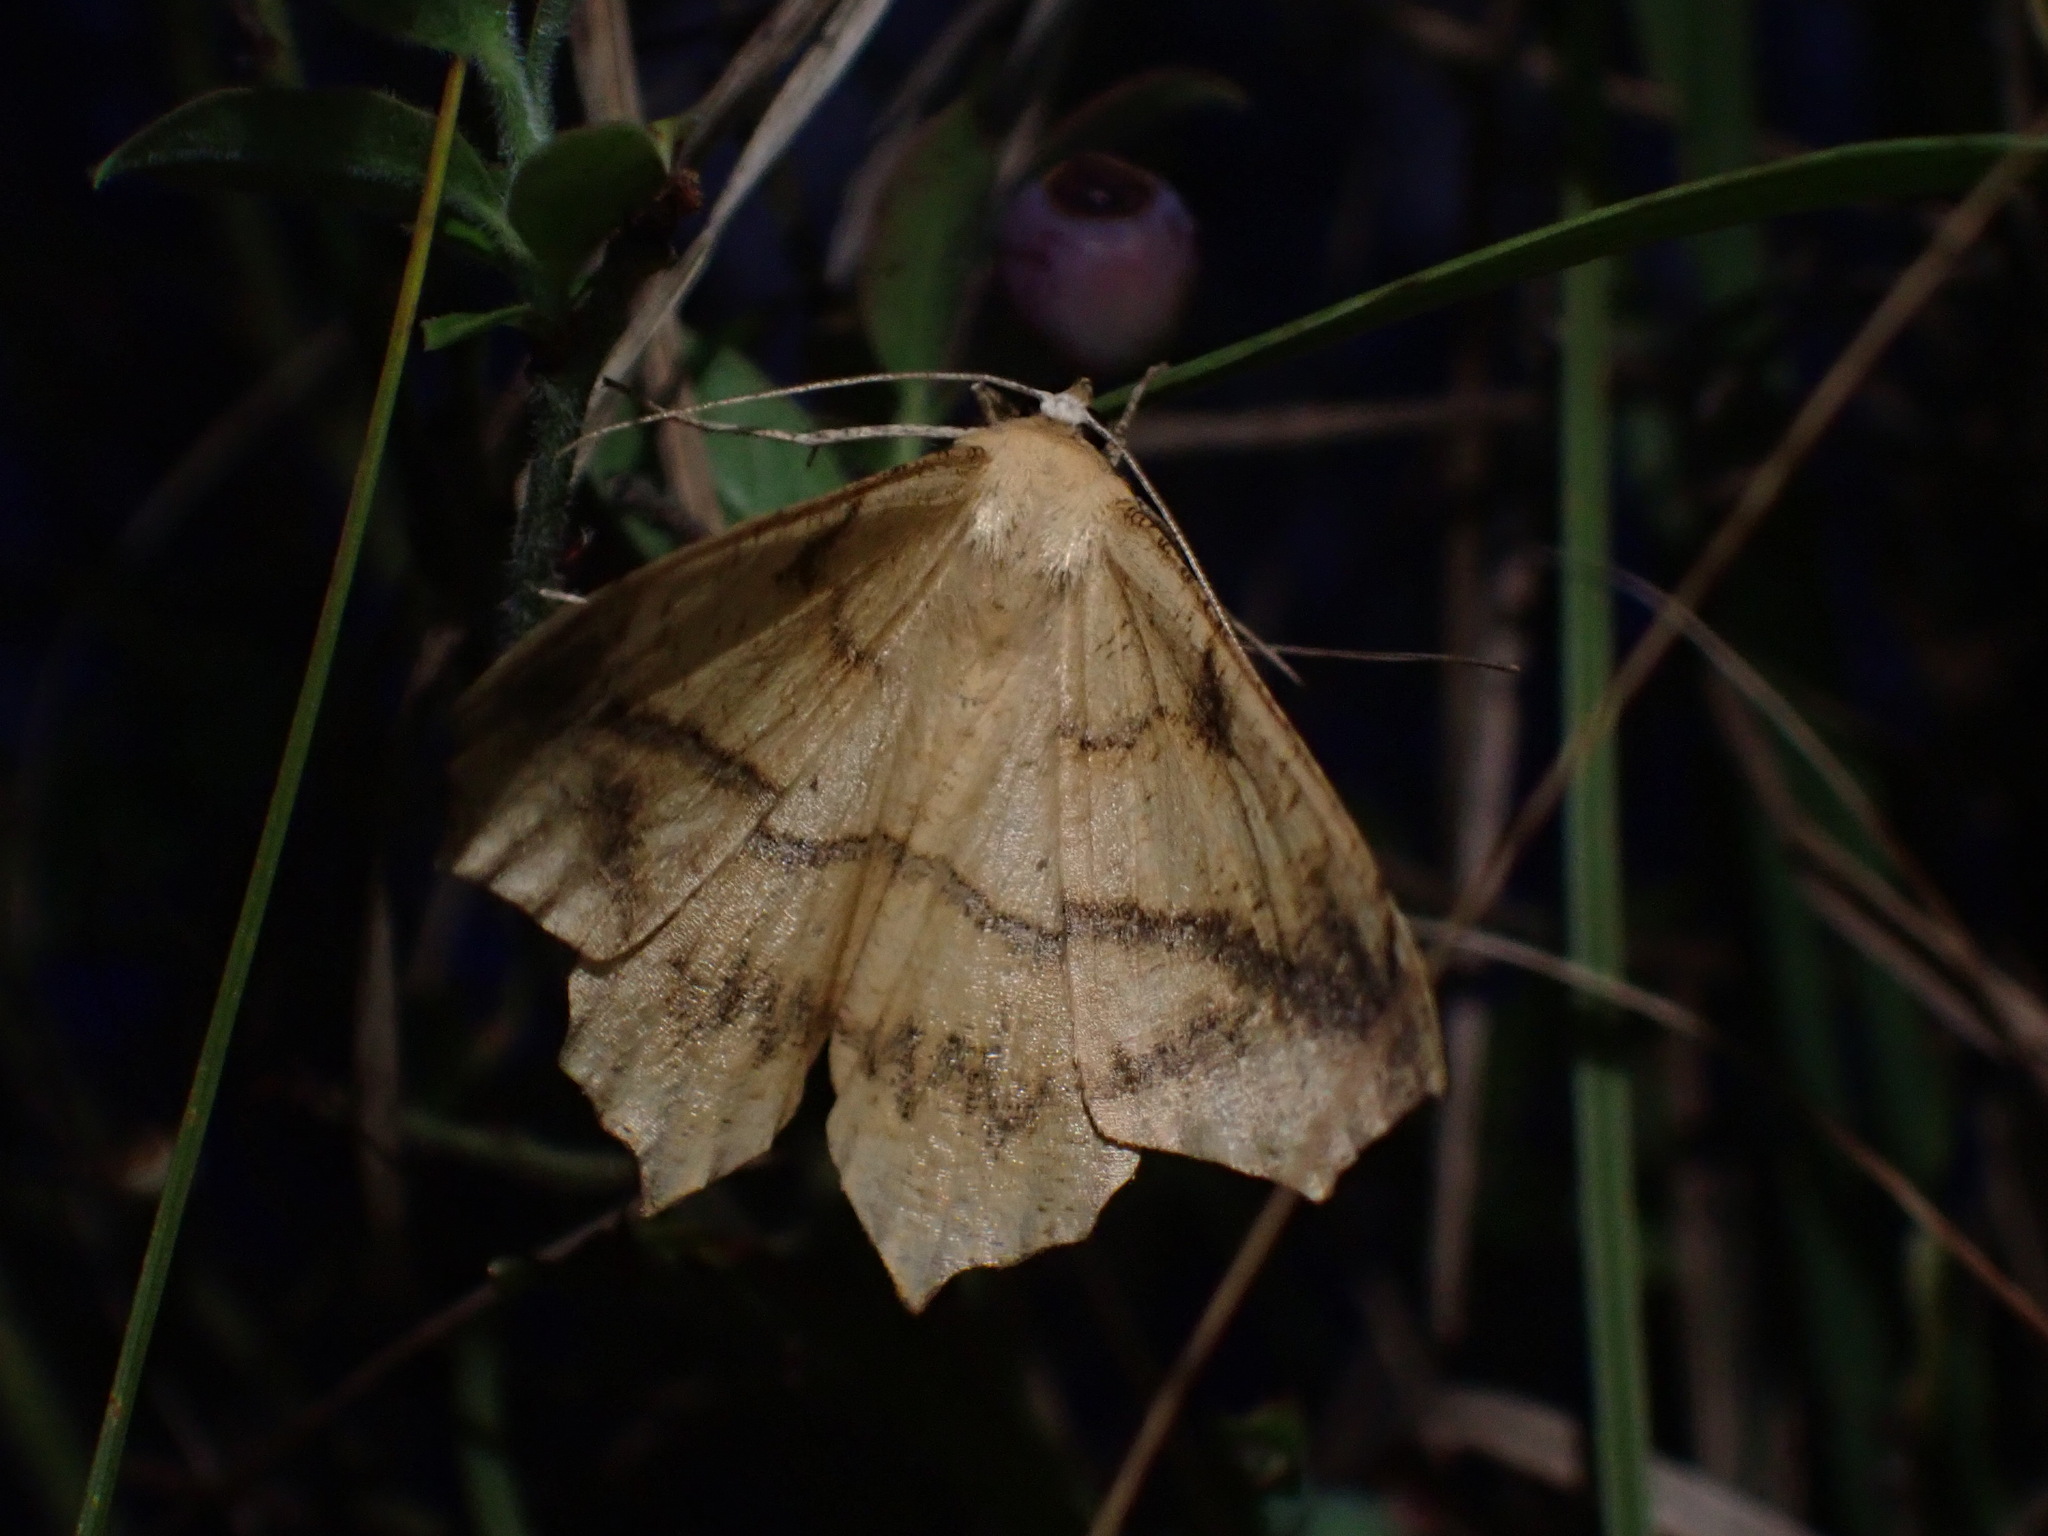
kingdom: Animalia
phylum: Arthropoda
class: Insecta
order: Lepidoptera
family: Geometridae
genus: Prochoerodes
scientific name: Prochoerodes lineola
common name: Large maple spanworm
